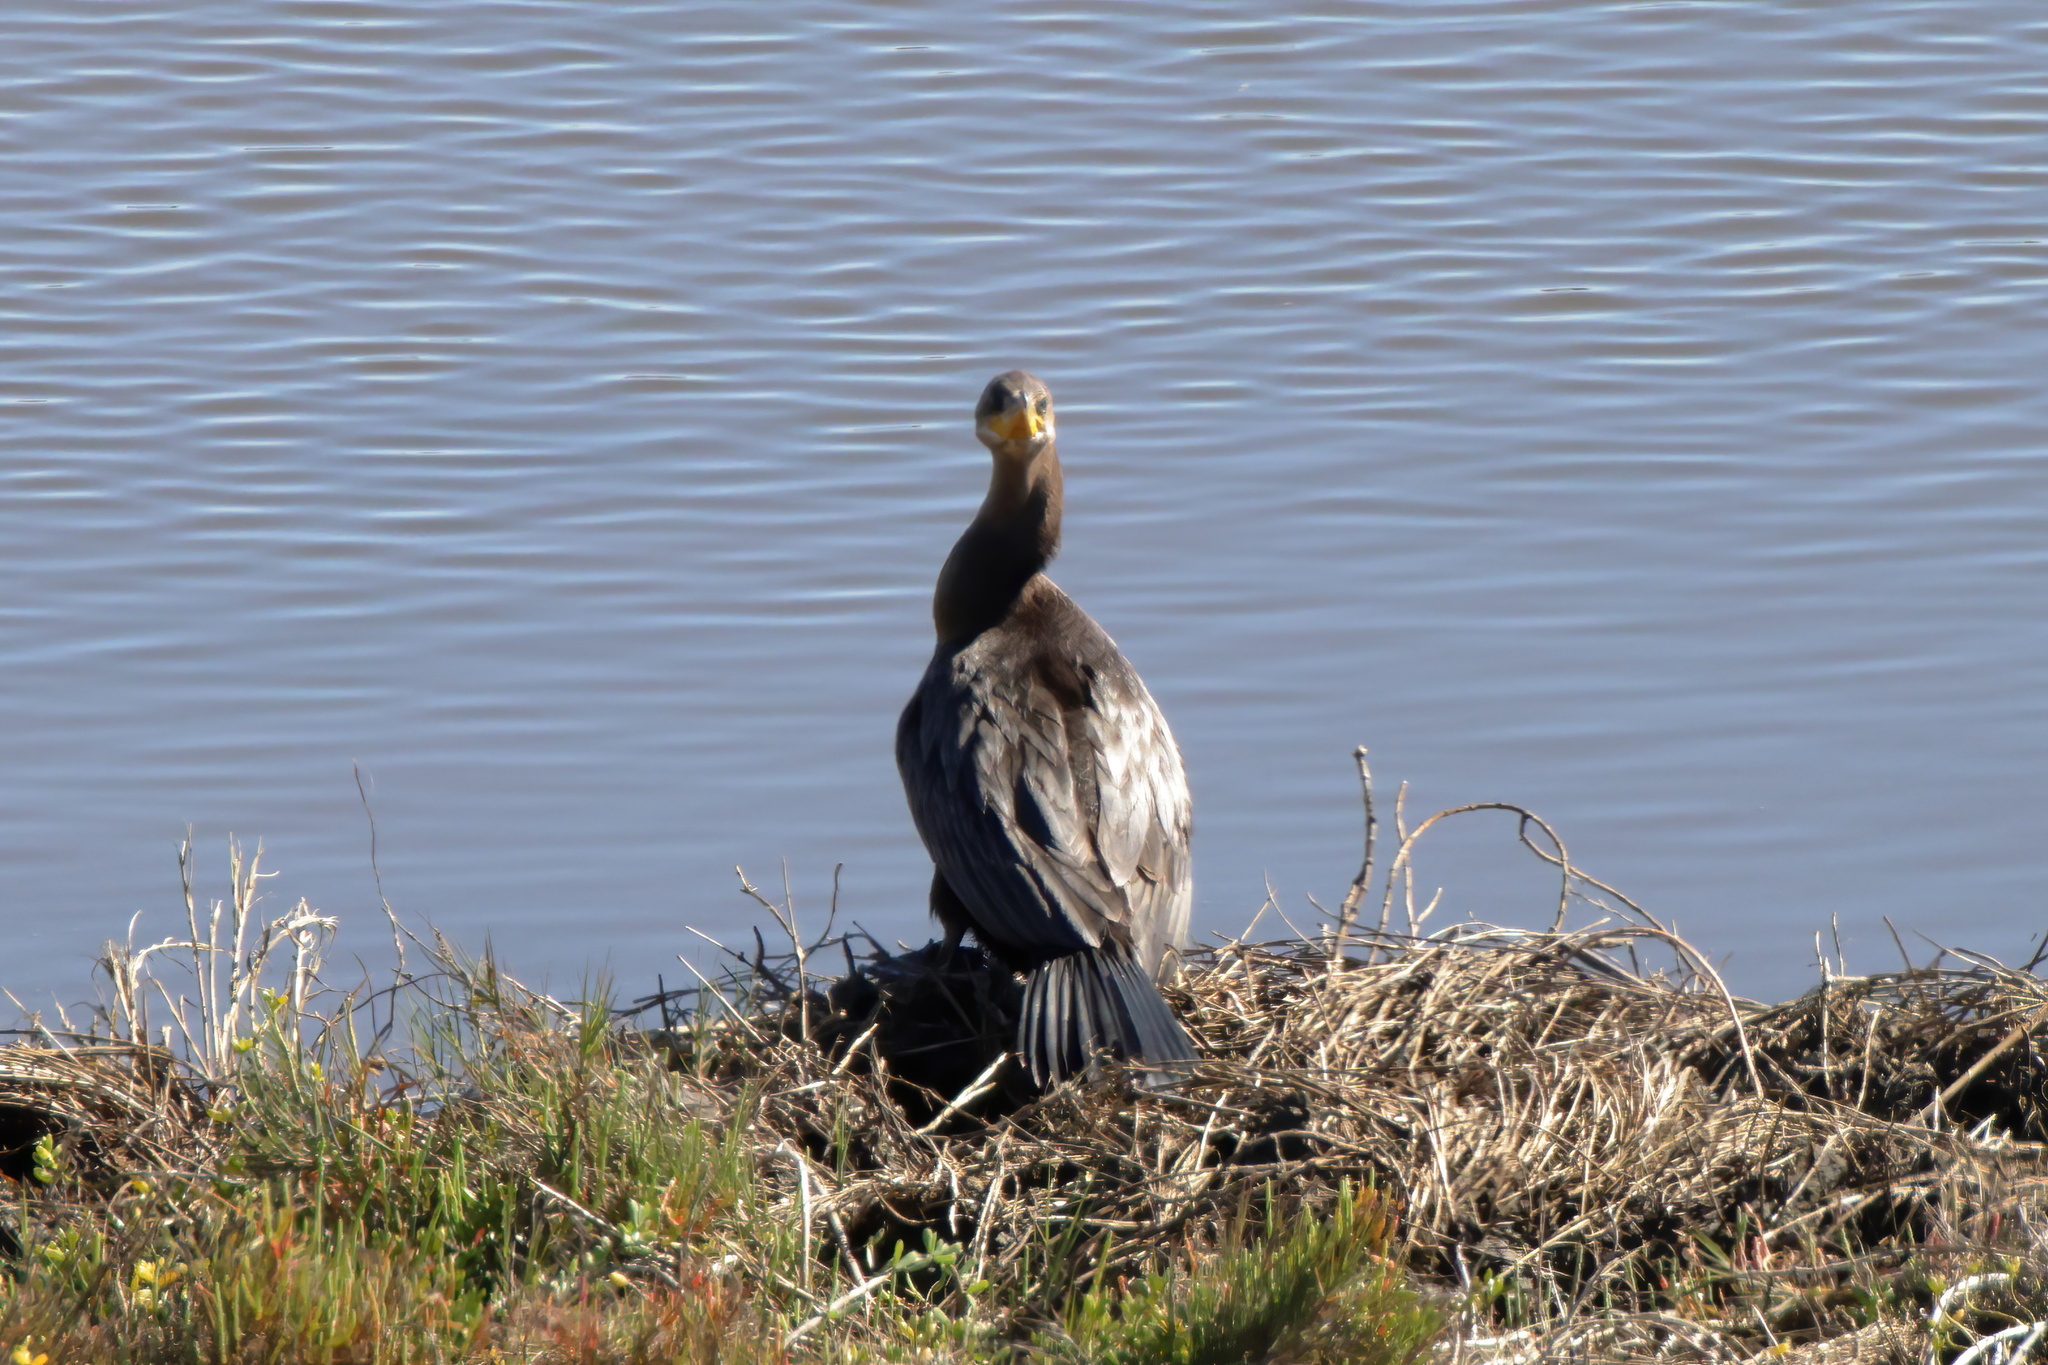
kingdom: Animalia
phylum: Chordata
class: Aves
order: Suliformes
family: Phalacrocoracidae
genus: Phalacrocorax
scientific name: Phalacrocorax brasilianus
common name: Neotropic cormorant
